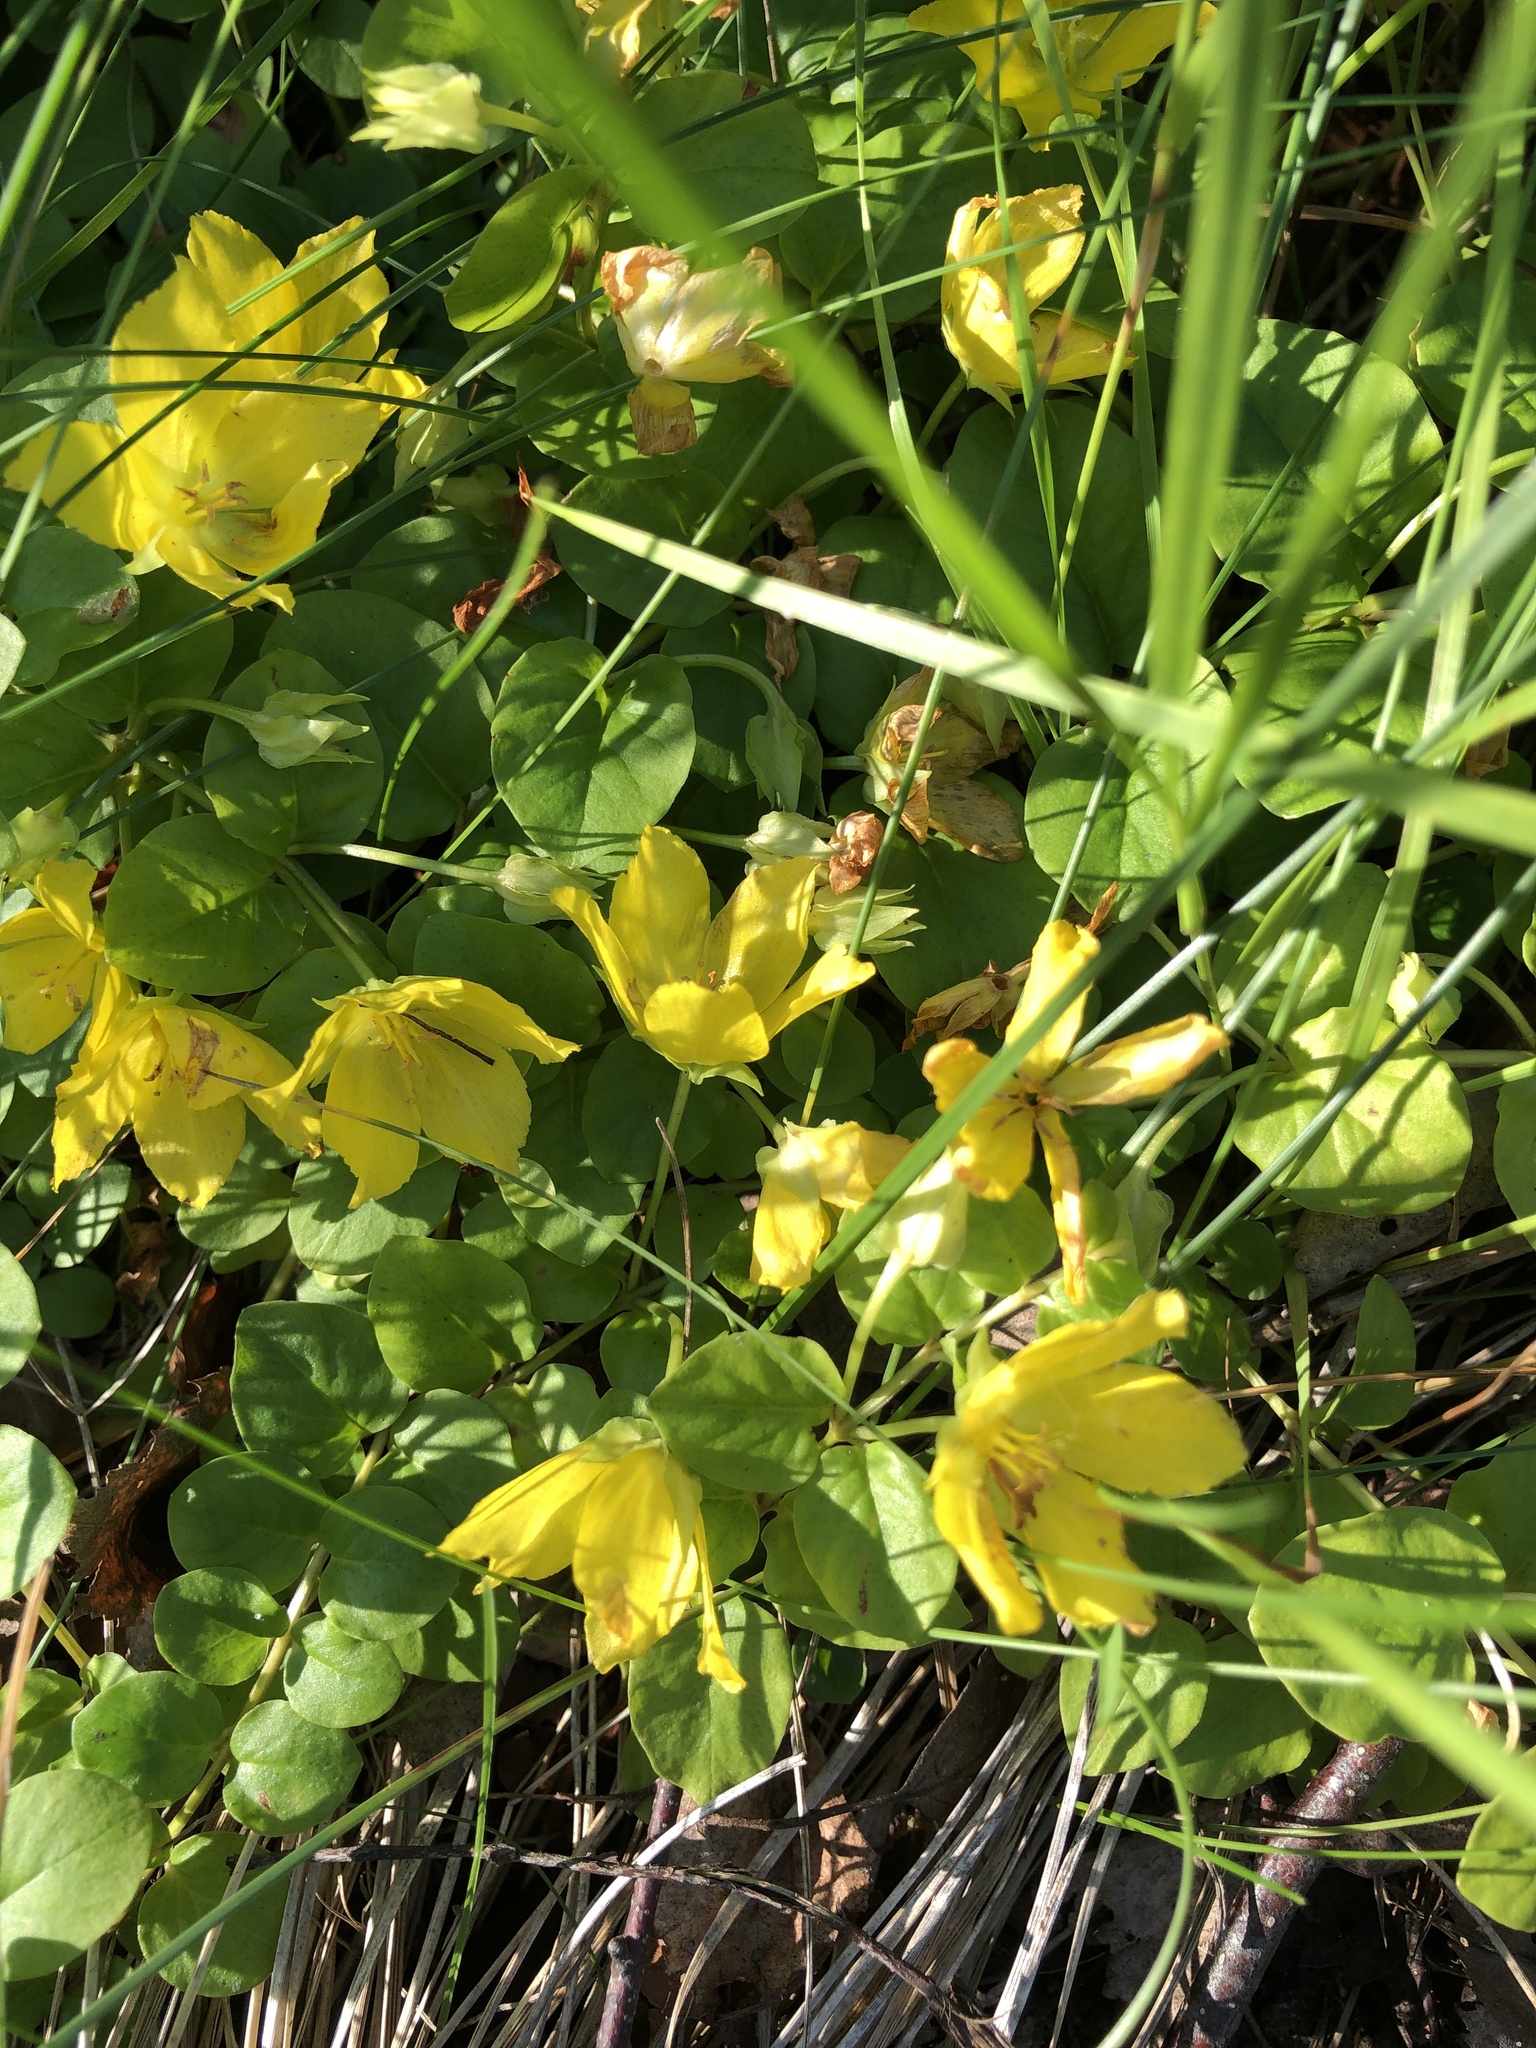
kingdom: Plantae
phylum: Tracheophyta
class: Magnoliopsida
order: Ericales
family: Primulaceae
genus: Lysimachia
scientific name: Lysimachia nummularia
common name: Moneywort
